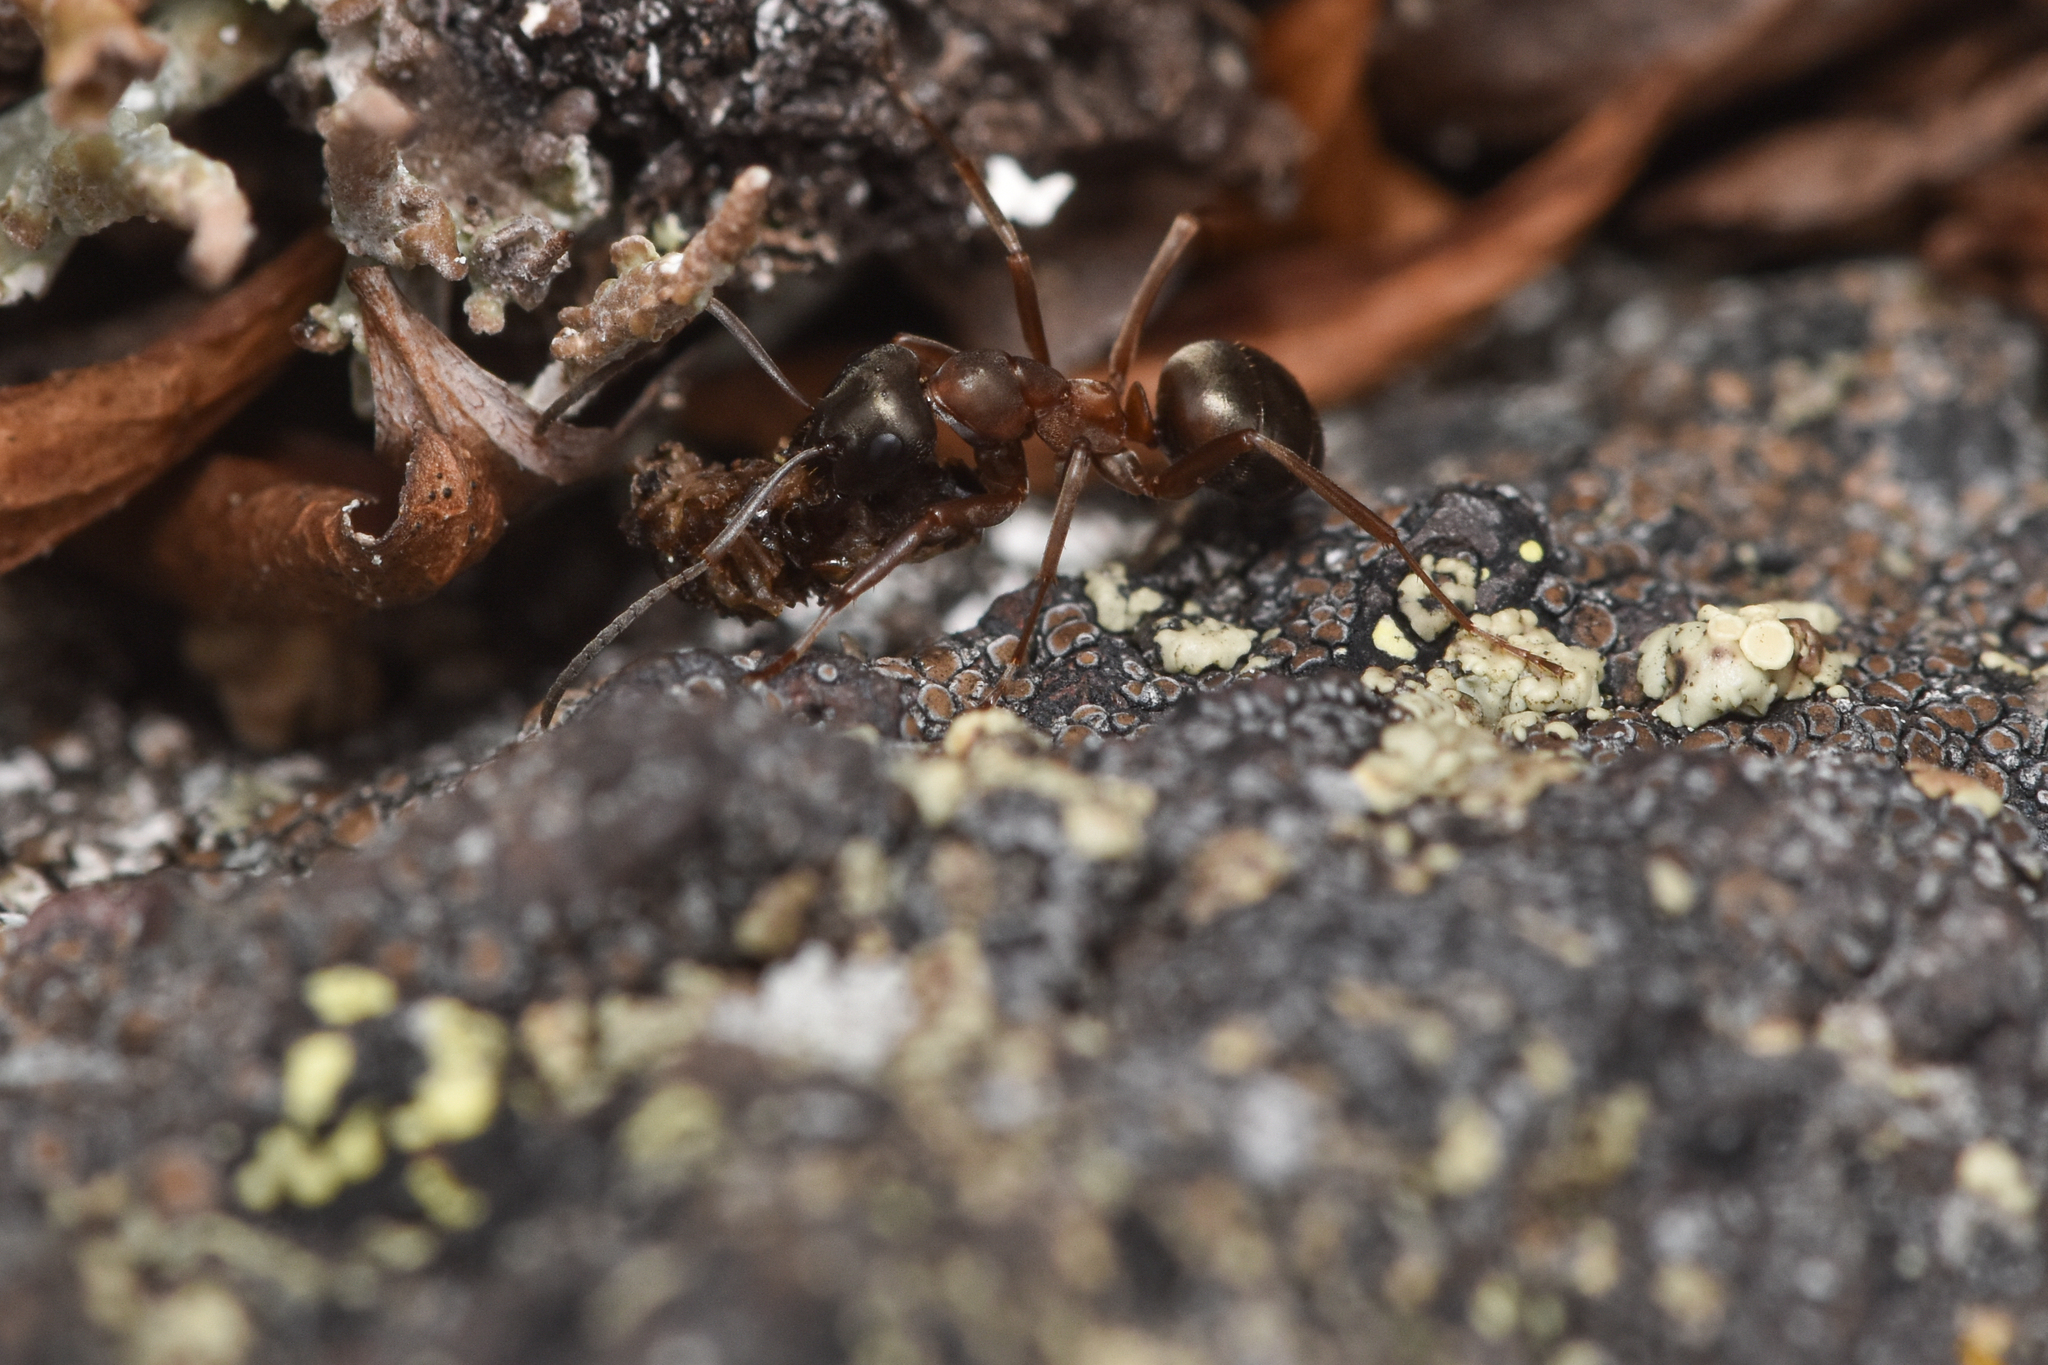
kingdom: Animalia
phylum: Arthropoda
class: Insecta
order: Hymenoptera
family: Formicidae
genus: Formica
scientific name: Formica neorufibarbis
